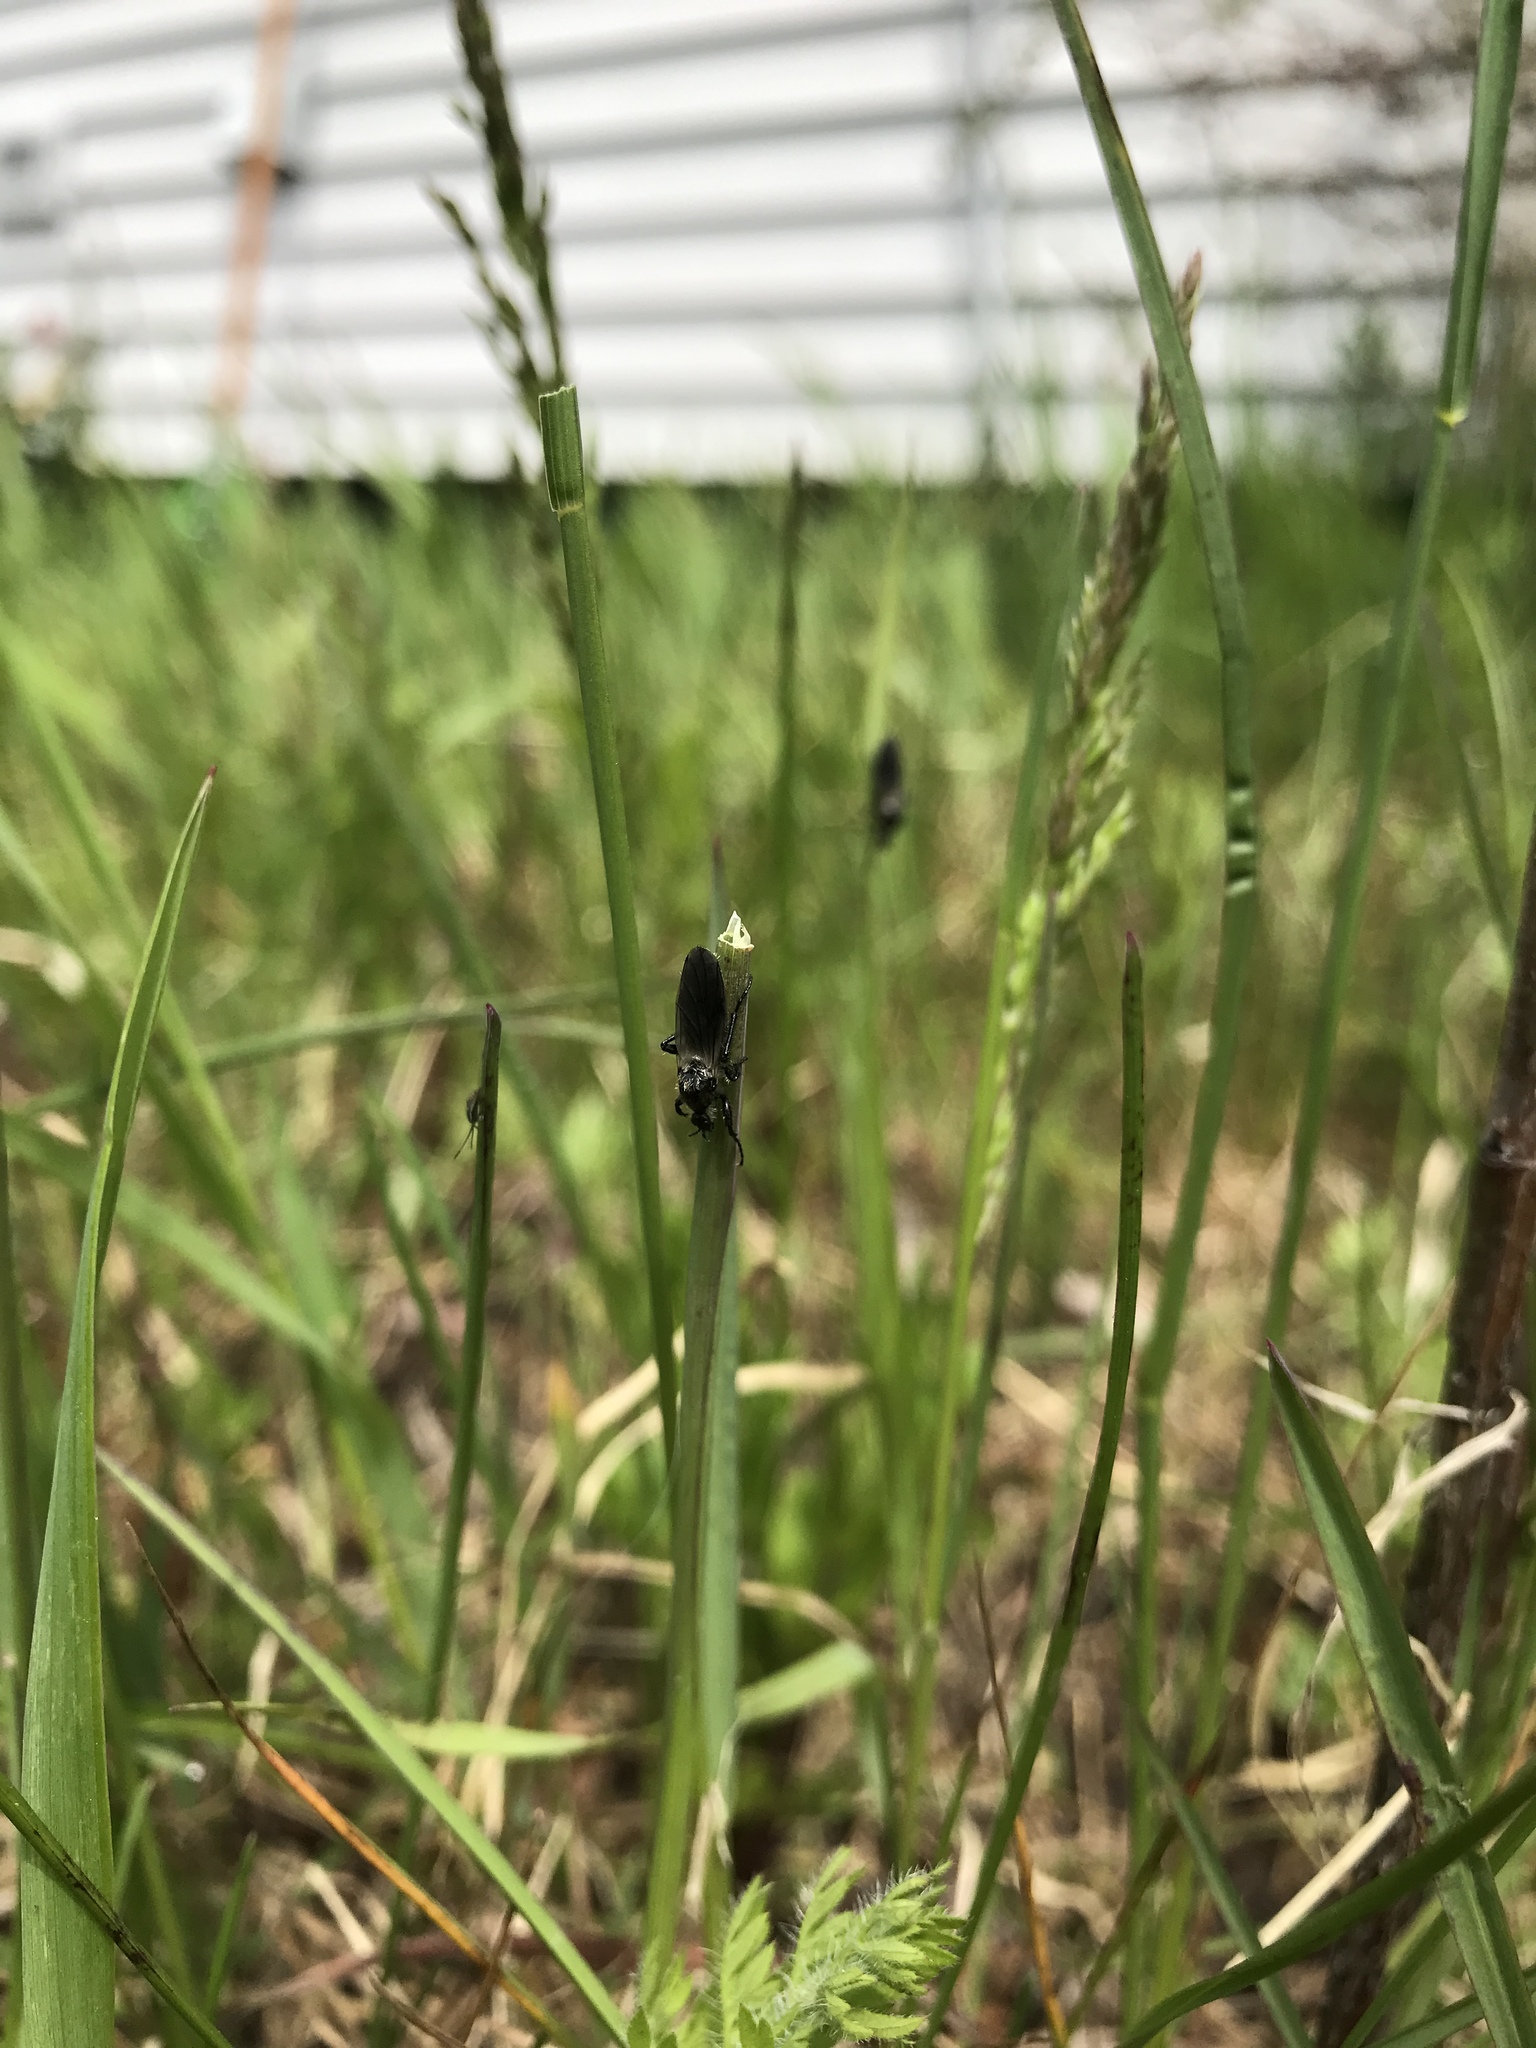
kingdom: Animalia
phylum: Arthropoda
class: Insecta
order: Diptera
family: Bibionidae
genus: Bibio
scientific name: Bibio albipennis
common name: White-winged march fly
